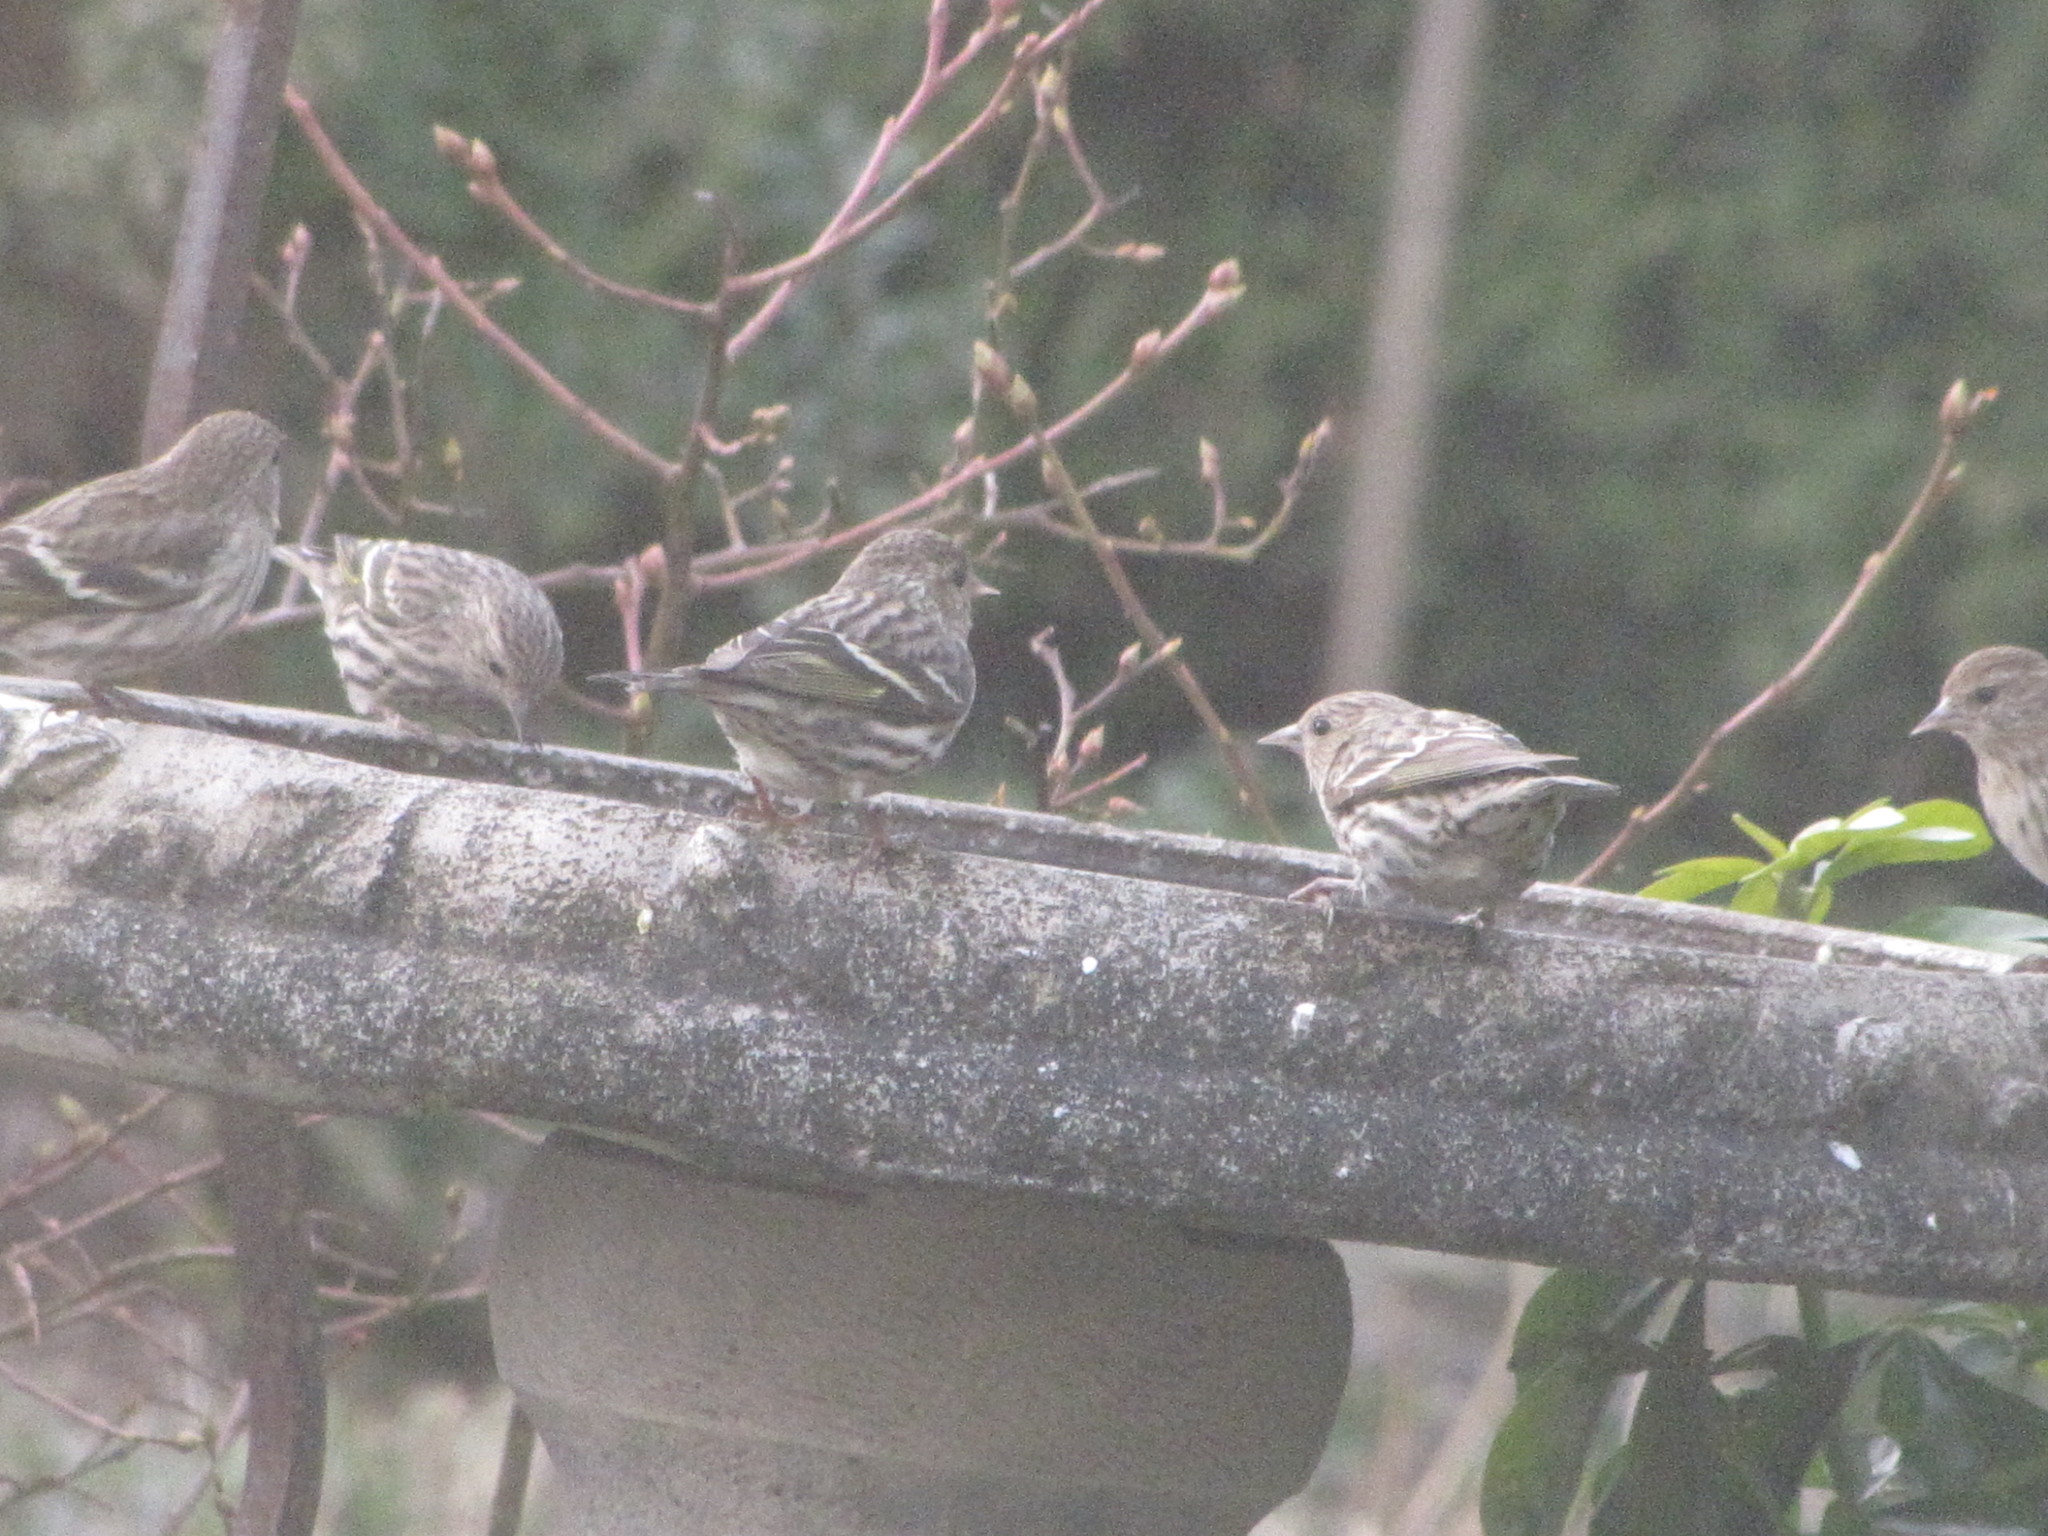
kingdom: Animalia
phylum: Chordata
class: Aves
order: Passeriformes
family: Fringillidae
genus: Spinus
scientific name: Spinus pinus
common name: Pine siskin
